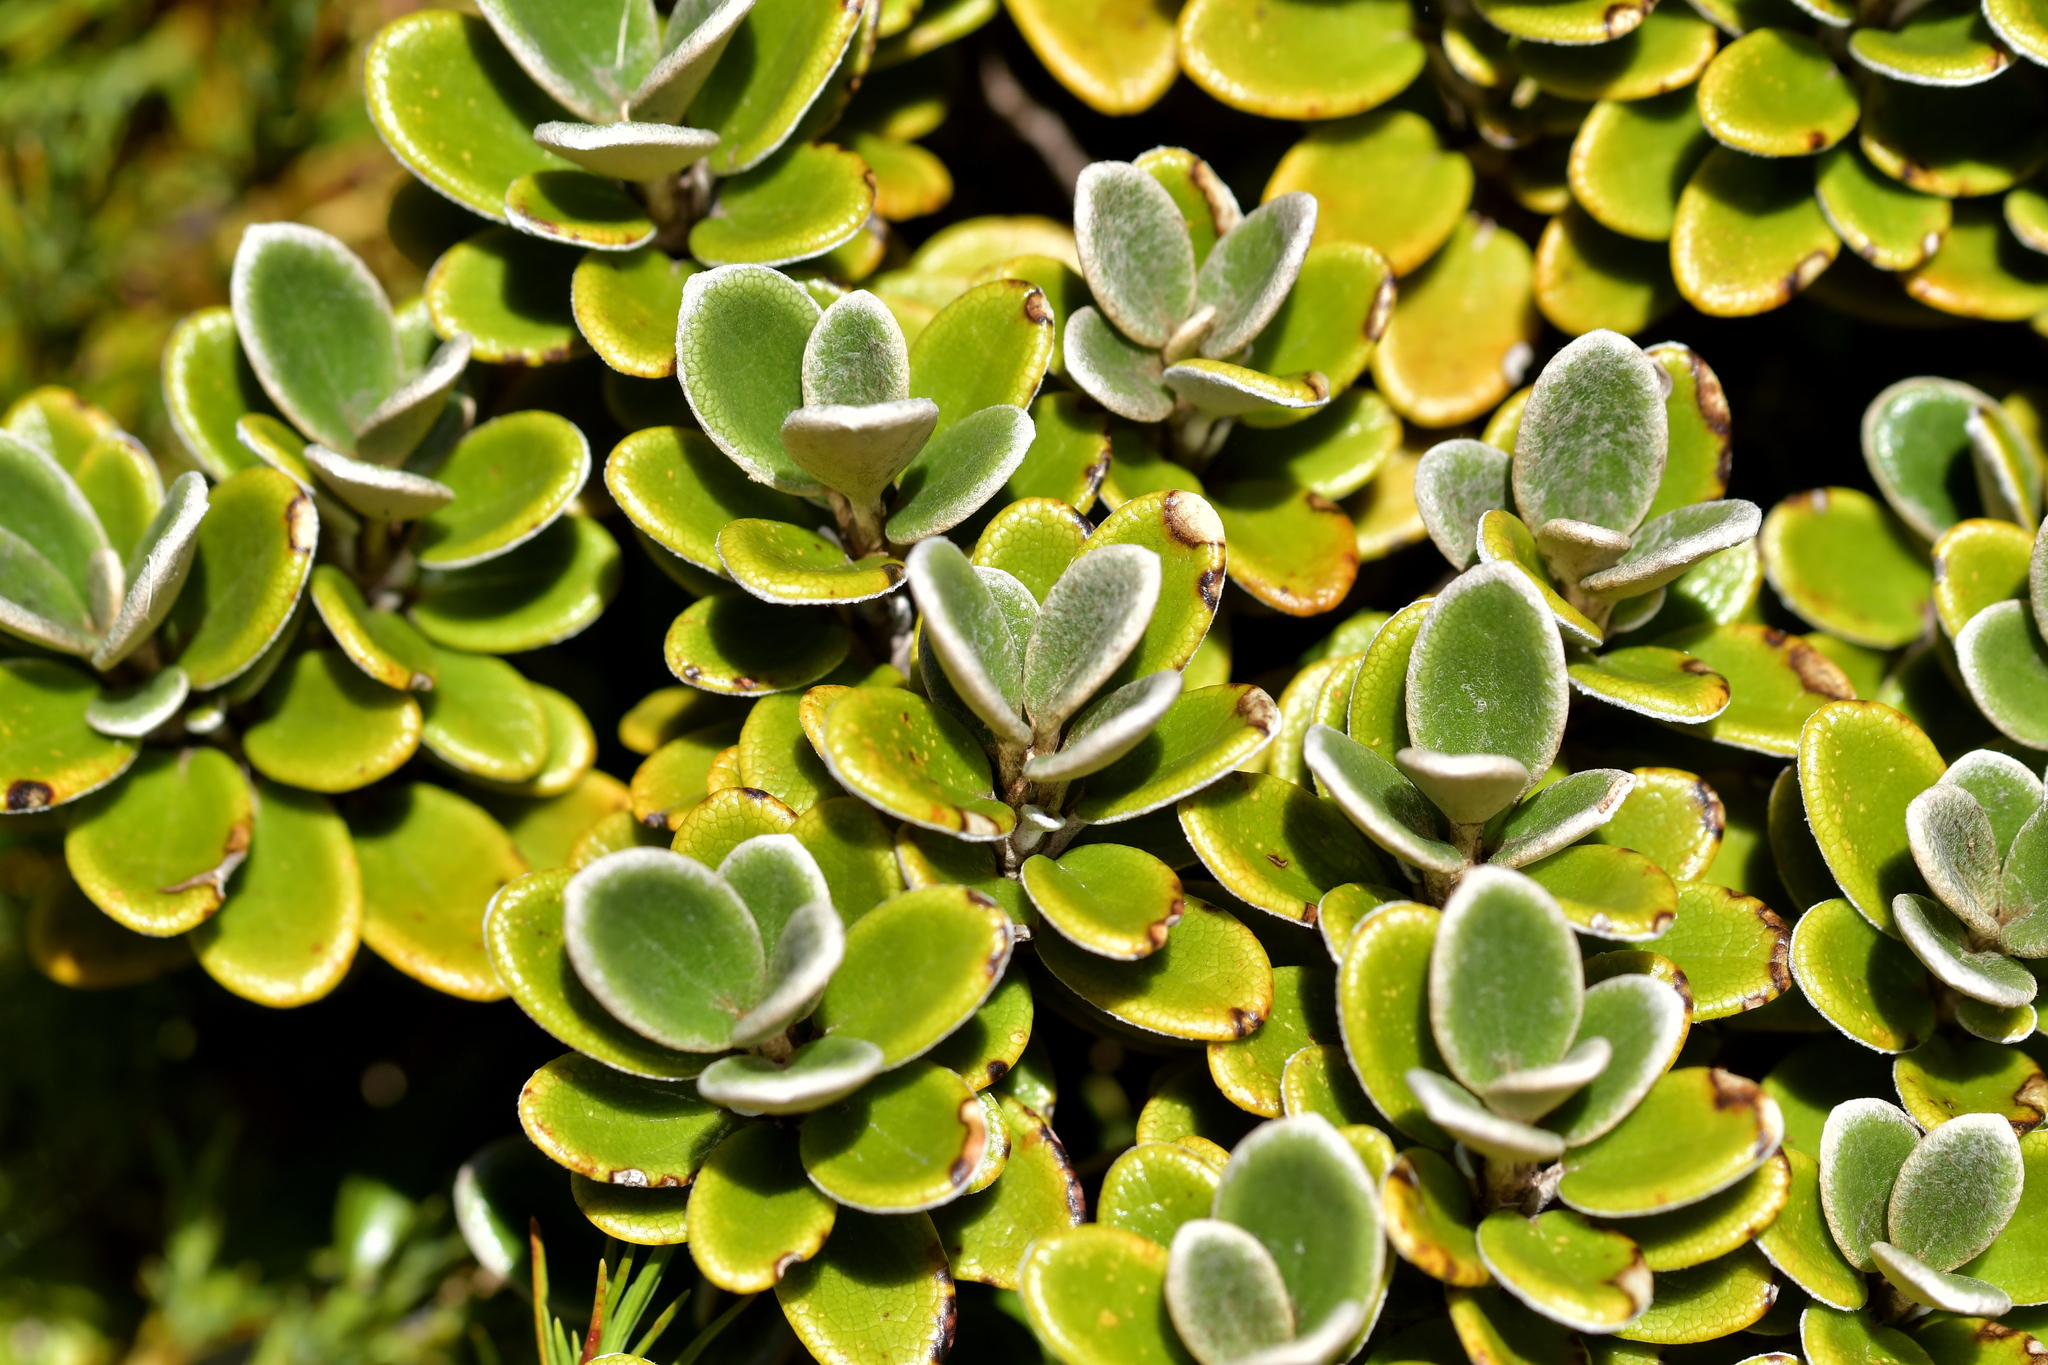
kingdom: Plantae
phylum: Tracheophyta
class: Magnoliopsida
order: Asterales
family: Asteraceae
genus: Brachyglottis
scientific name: Brachyglottis bidwillii
